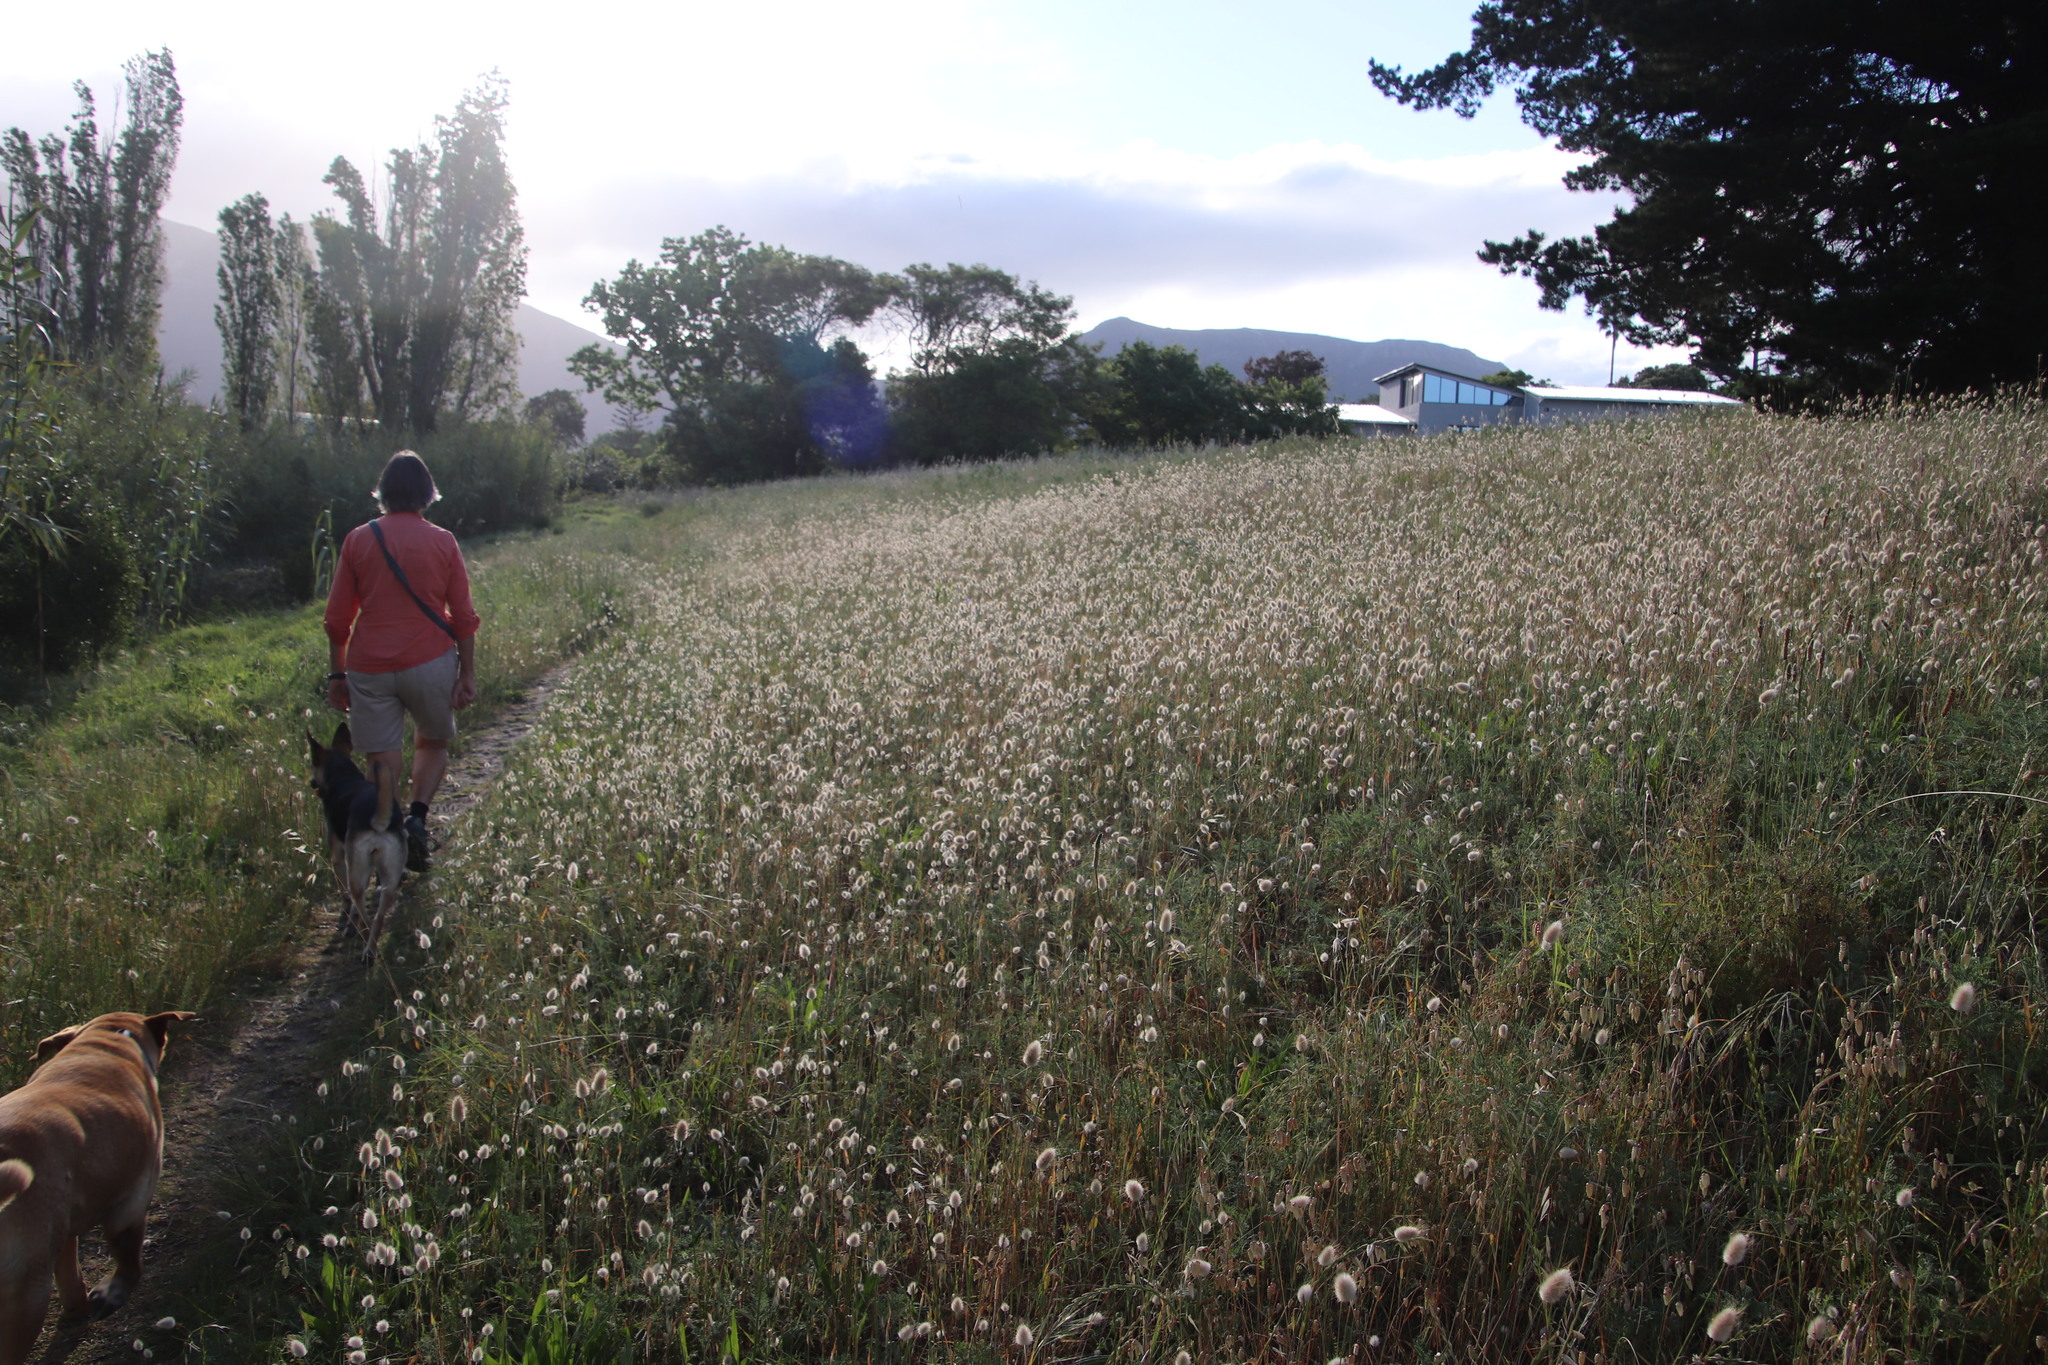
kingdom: Plantae
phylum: Tracheophyta
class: Liliopsida
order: Poales
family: Poaceae
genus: Lagurus
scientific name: Lagurus ovatus
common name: Hare's-tail
